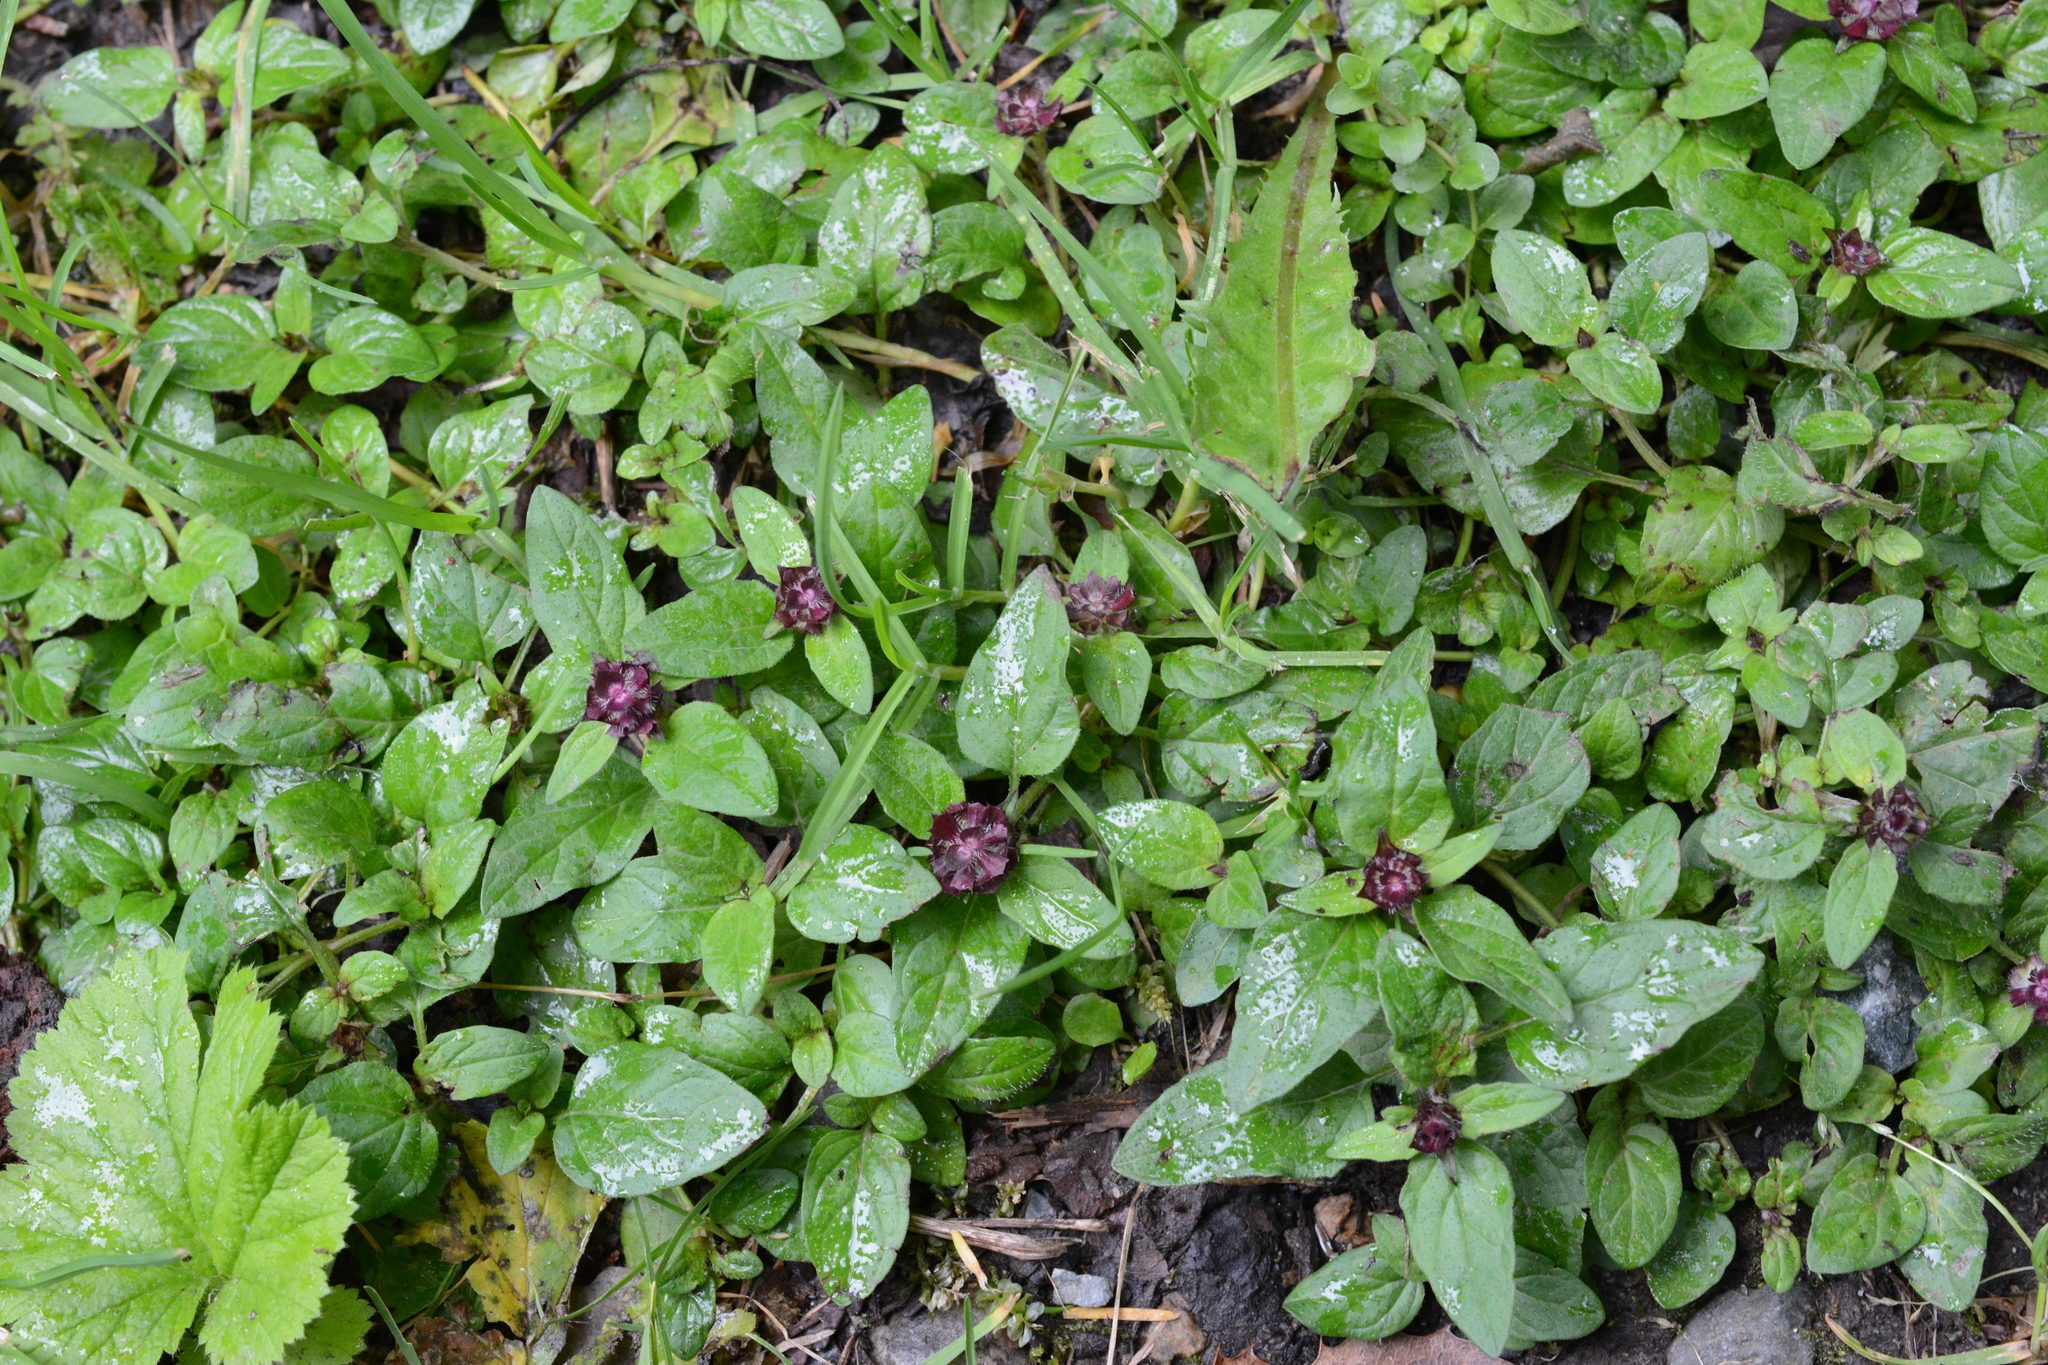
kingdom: Plantae
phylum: Tracheophyta
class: Magnoliopsida
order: Lamiales
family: Lamiaceae
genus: Prunella
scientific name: Prunella vulgaris
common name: Heal-all
